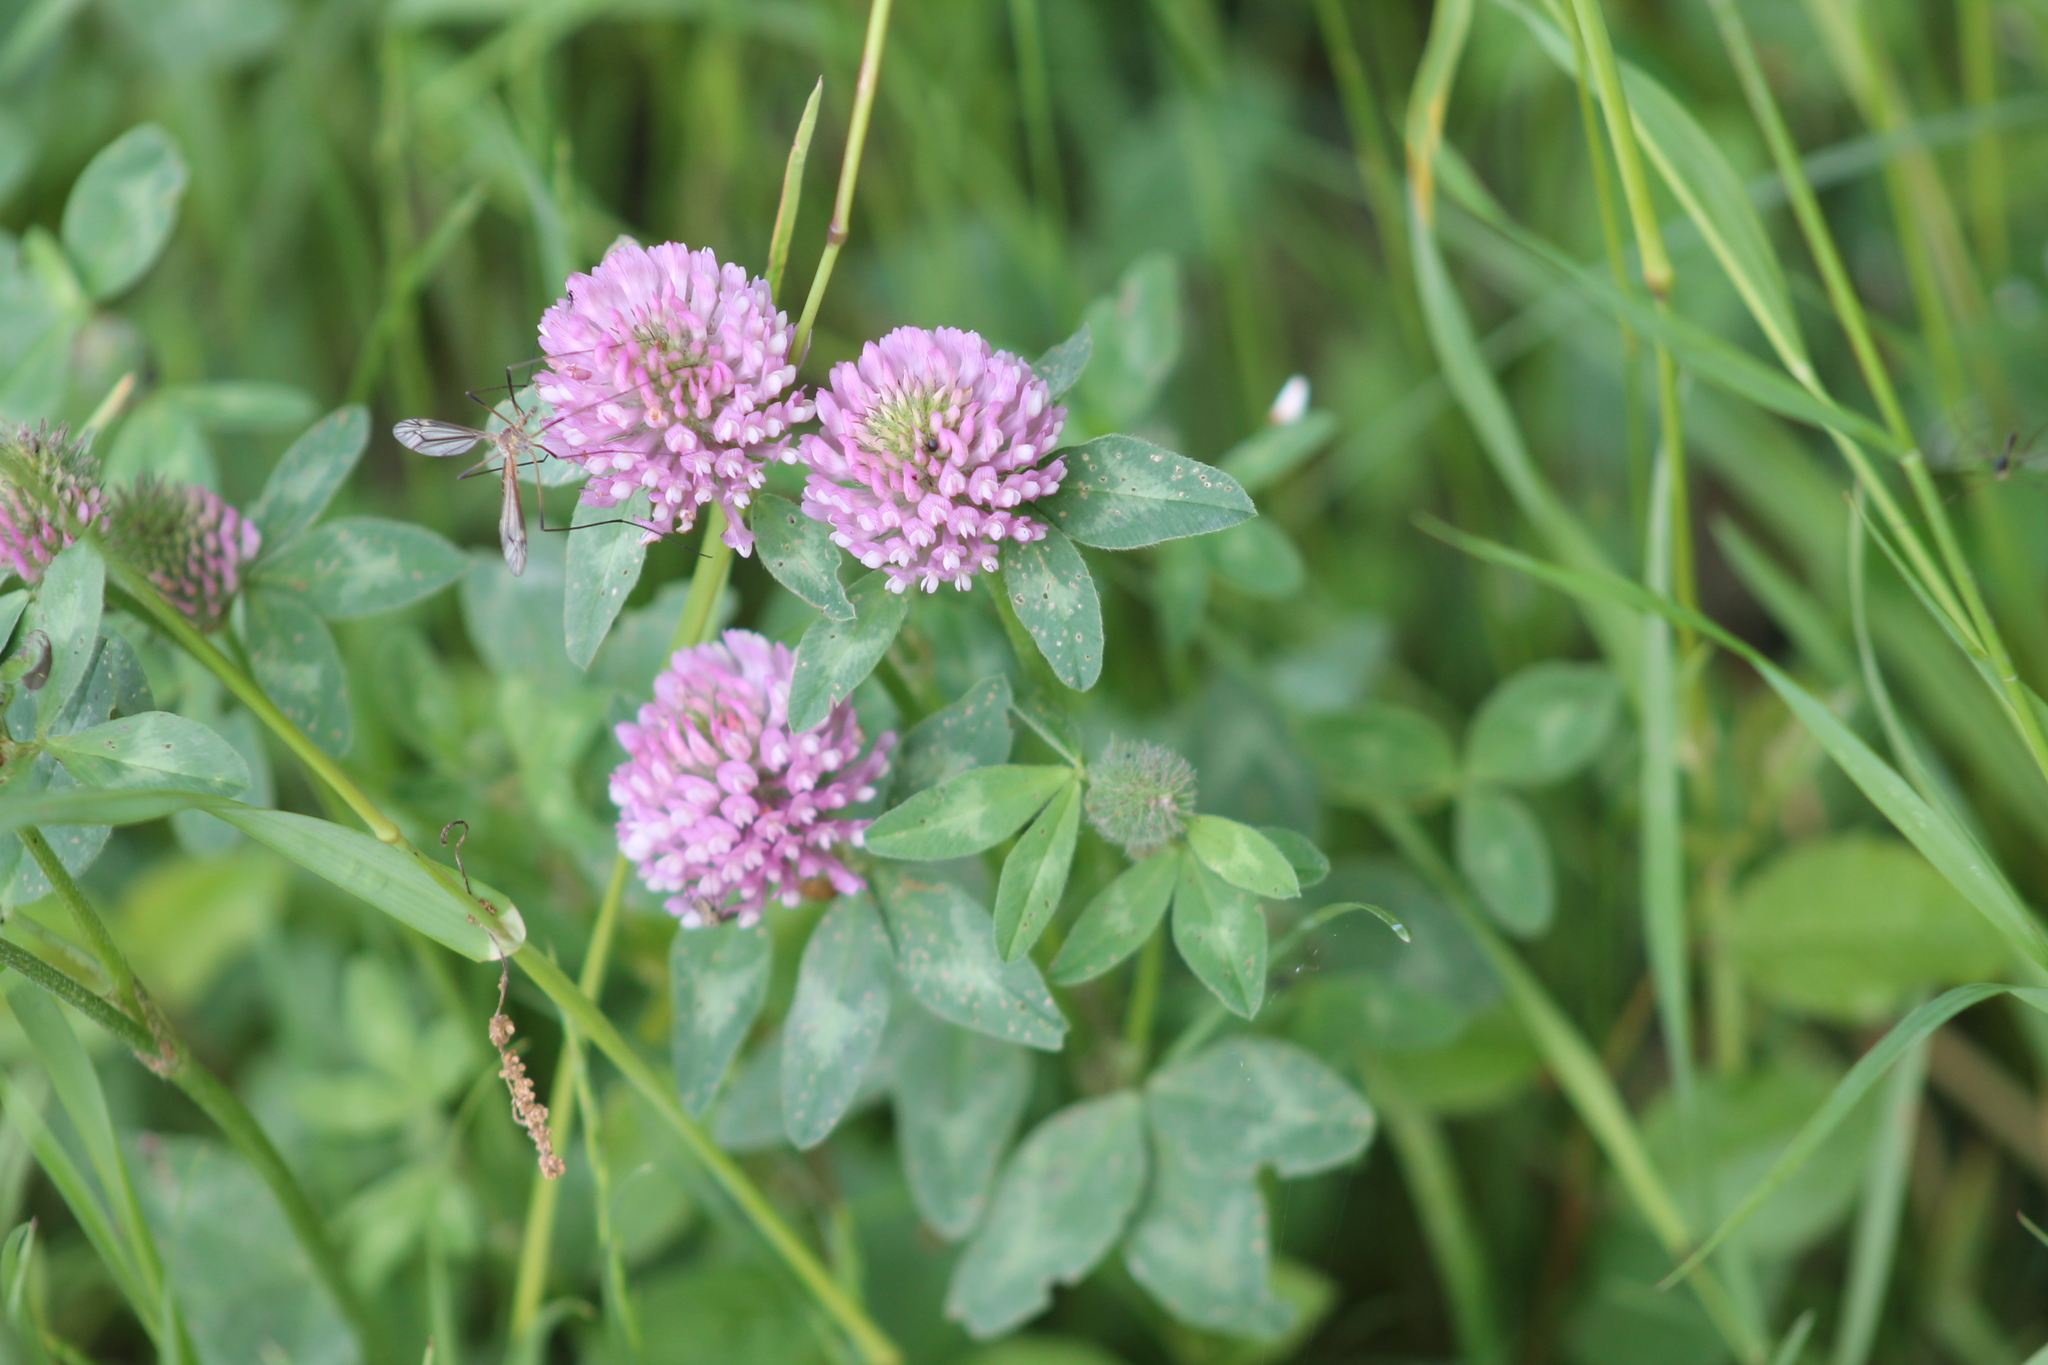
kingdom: Plantae
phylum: Tracheophyta
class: Magnoliopsida
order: Fabales
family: Fabaceae
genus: Trifolium
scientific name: Trifolium pratense
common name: Red clover
